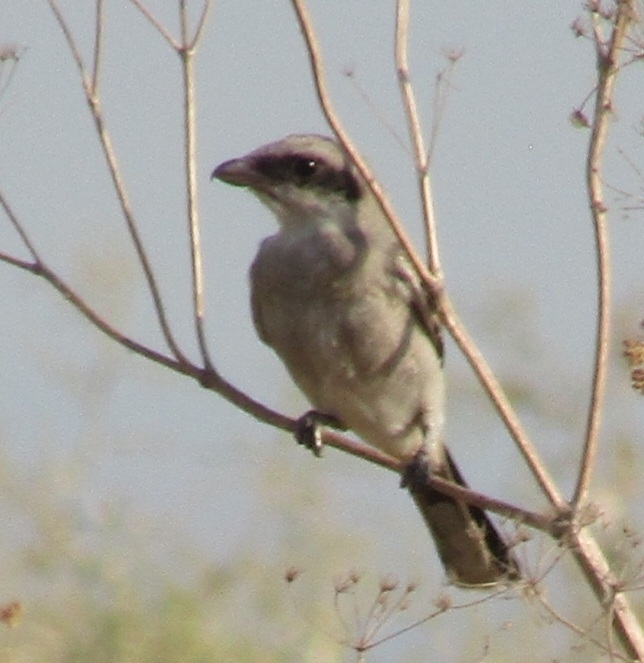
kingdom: Animalia
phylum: Chordata
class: Aves
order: Passeriformes
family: Laniidae
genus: Lanius
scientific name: Lanius ludovicianus
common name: Loggerhead shrike
